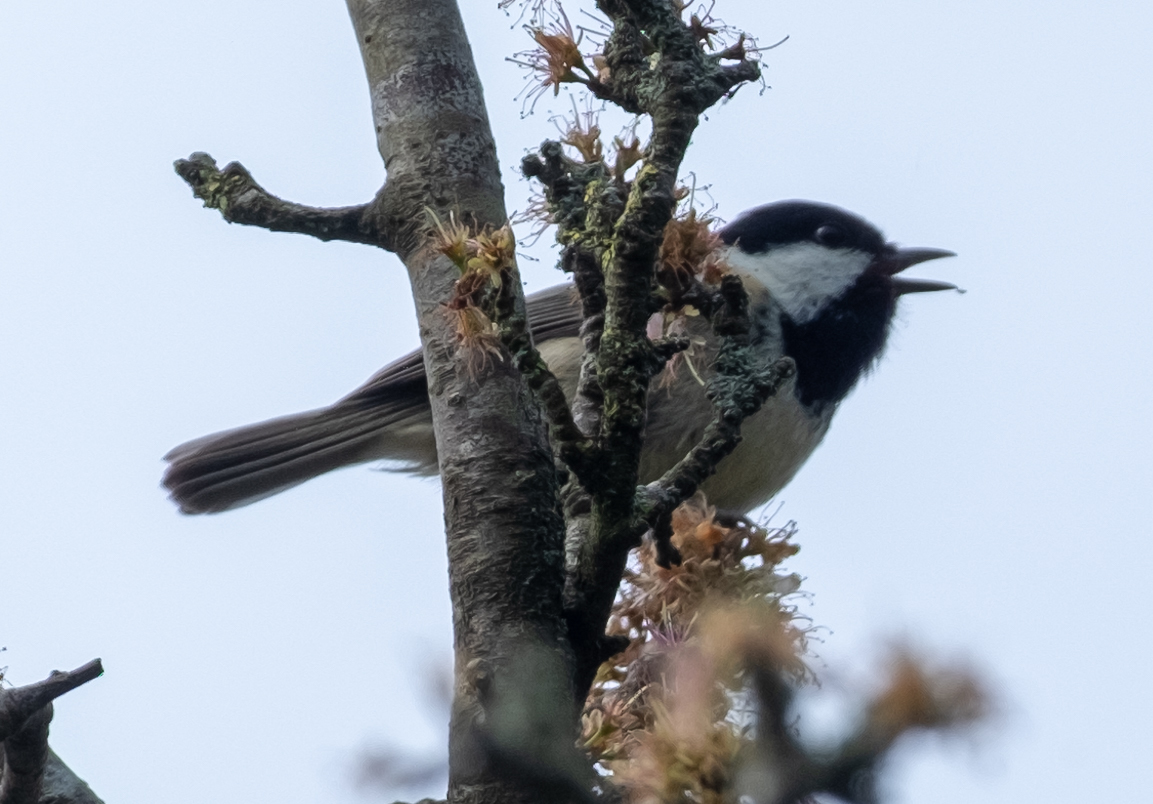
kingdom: Animalia
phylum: Chordata
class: Aves
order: Passeriformes
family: Paridae
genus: Periparus
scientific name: Periparus ater
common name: Coal tit
